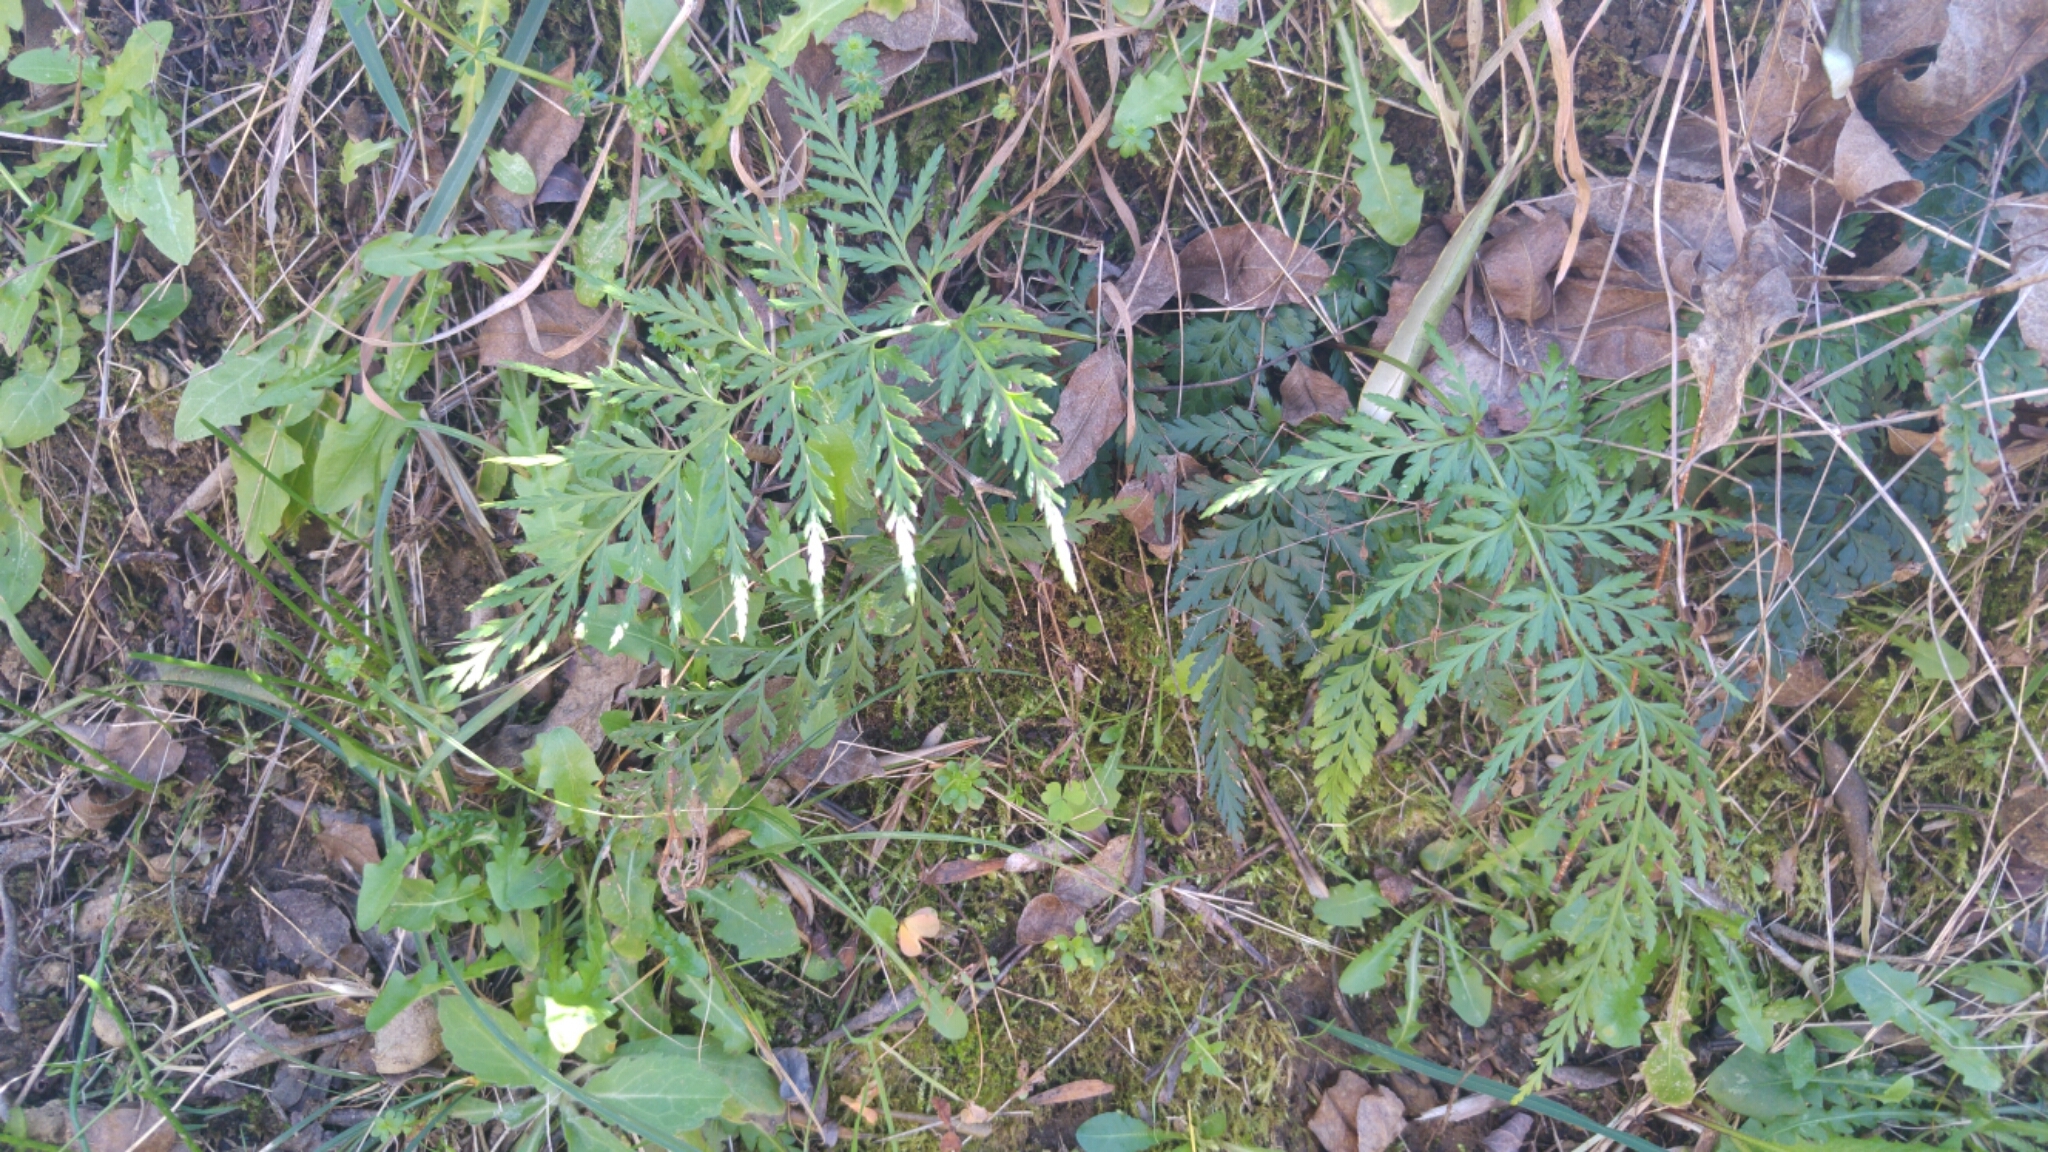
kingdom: Plantae
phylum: Tracheophyta
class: Polypodiopsida
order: Polypodiales
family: Aspleniaceae
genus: Asplenium
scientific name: Asplenium onopteris
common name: Irish spleenwort
